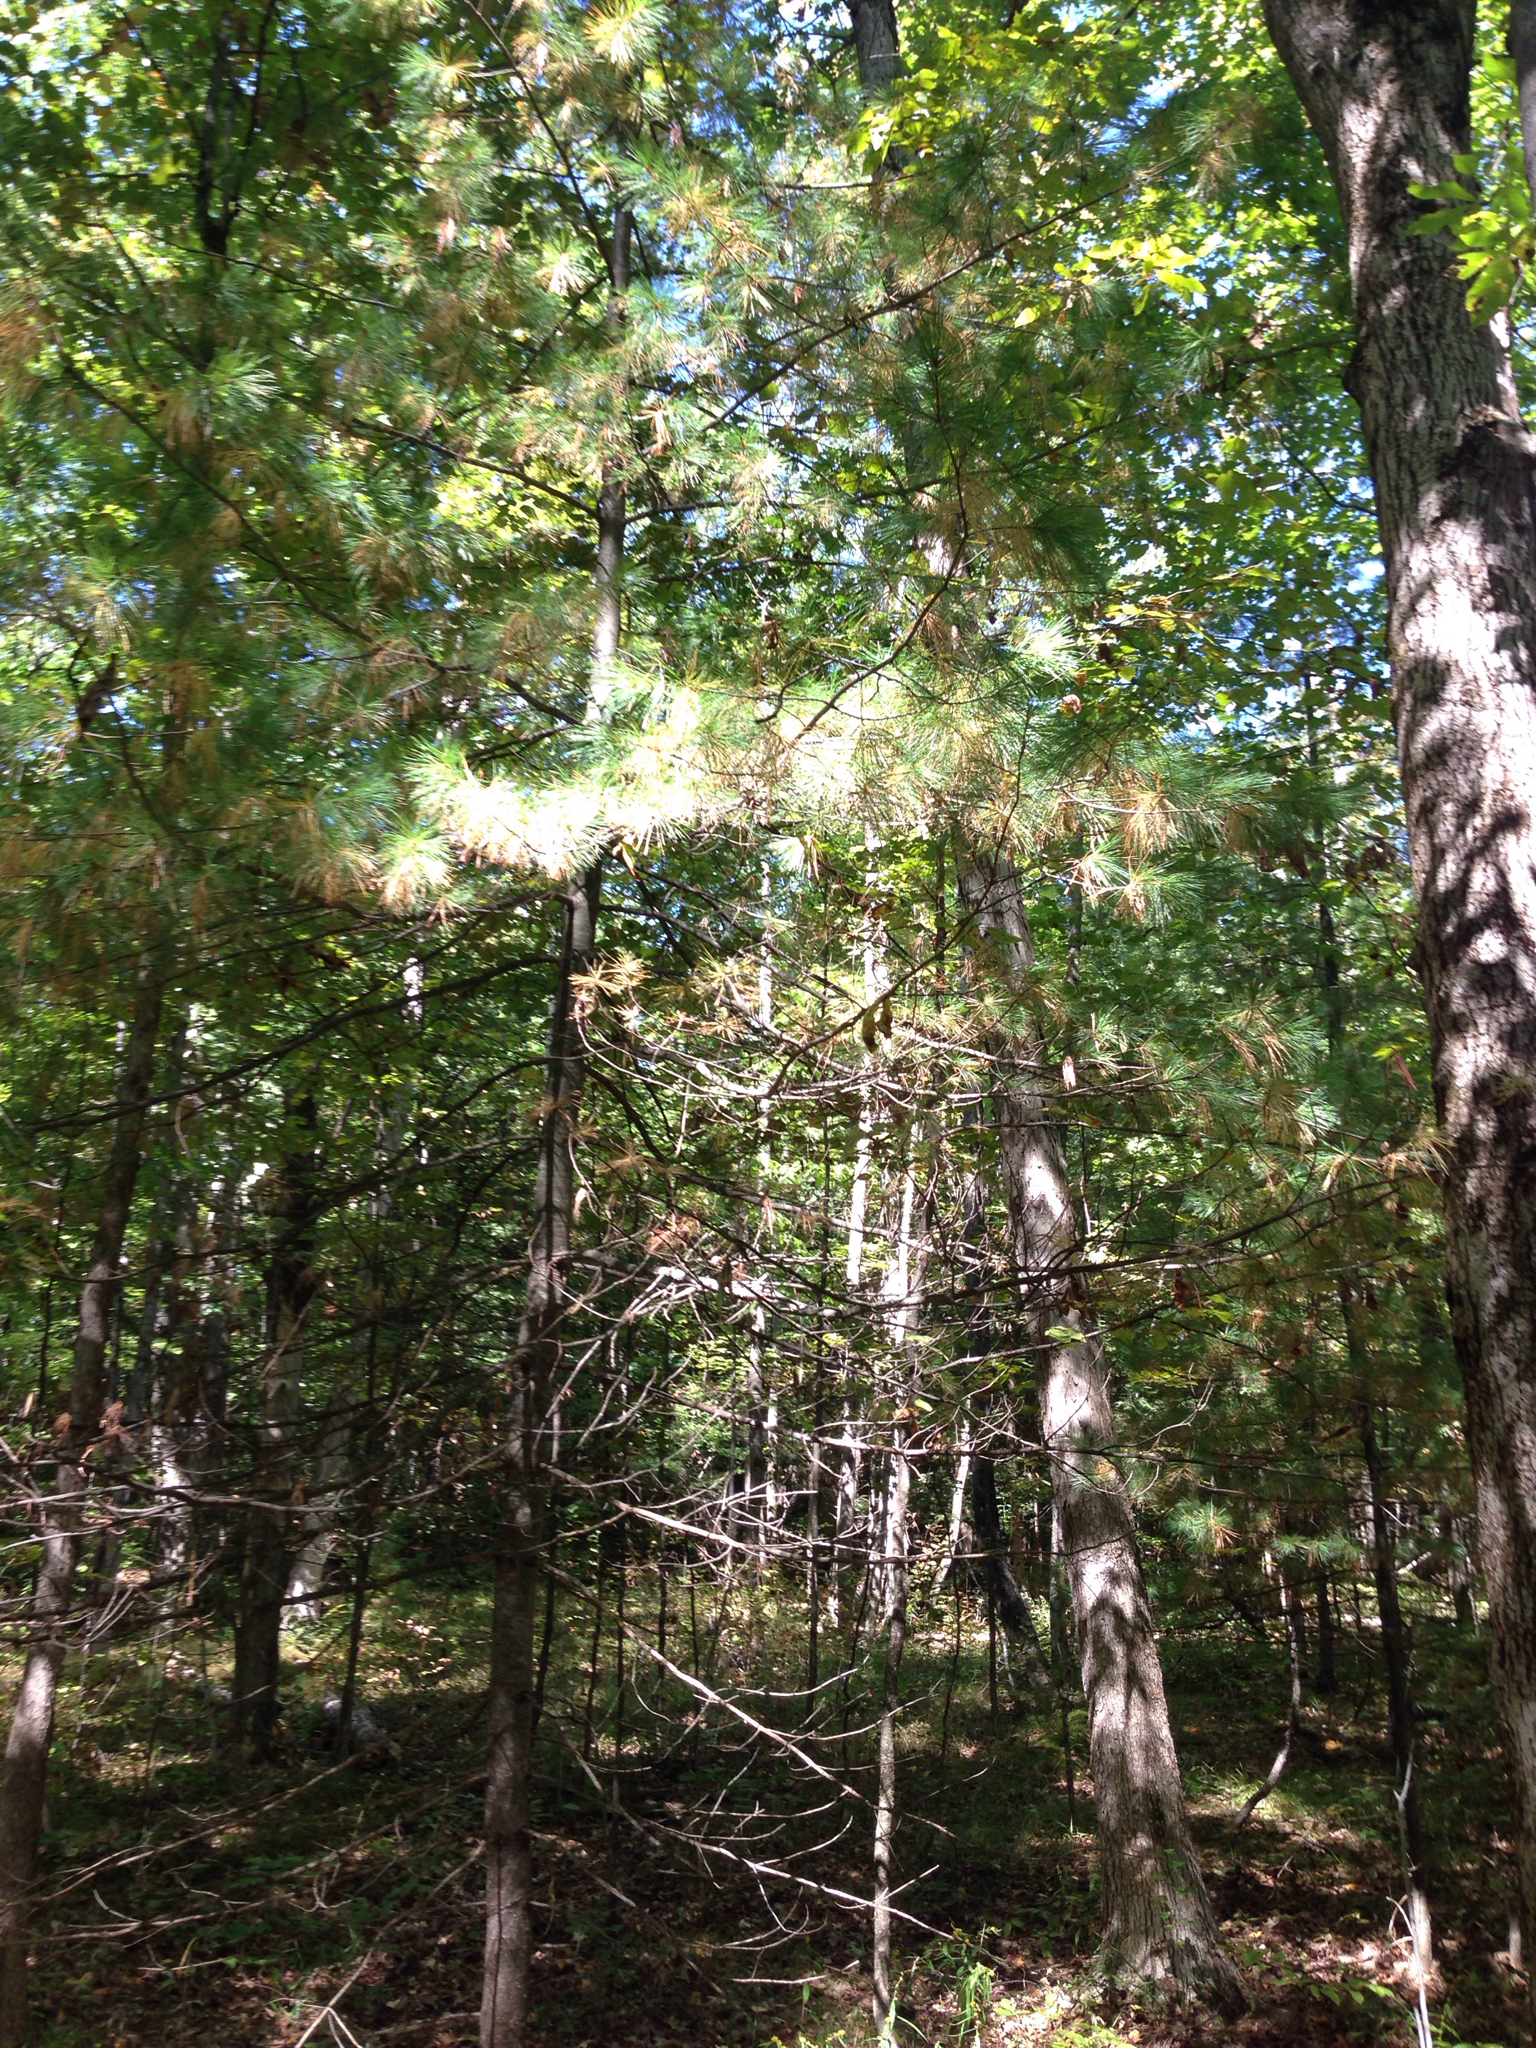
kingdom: Plantae
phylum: Tracheophyta
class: Pinopsida
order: Pinales
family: Pinaceae
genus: Pinus
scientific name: Pinus strobus
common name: Weymouth pine
